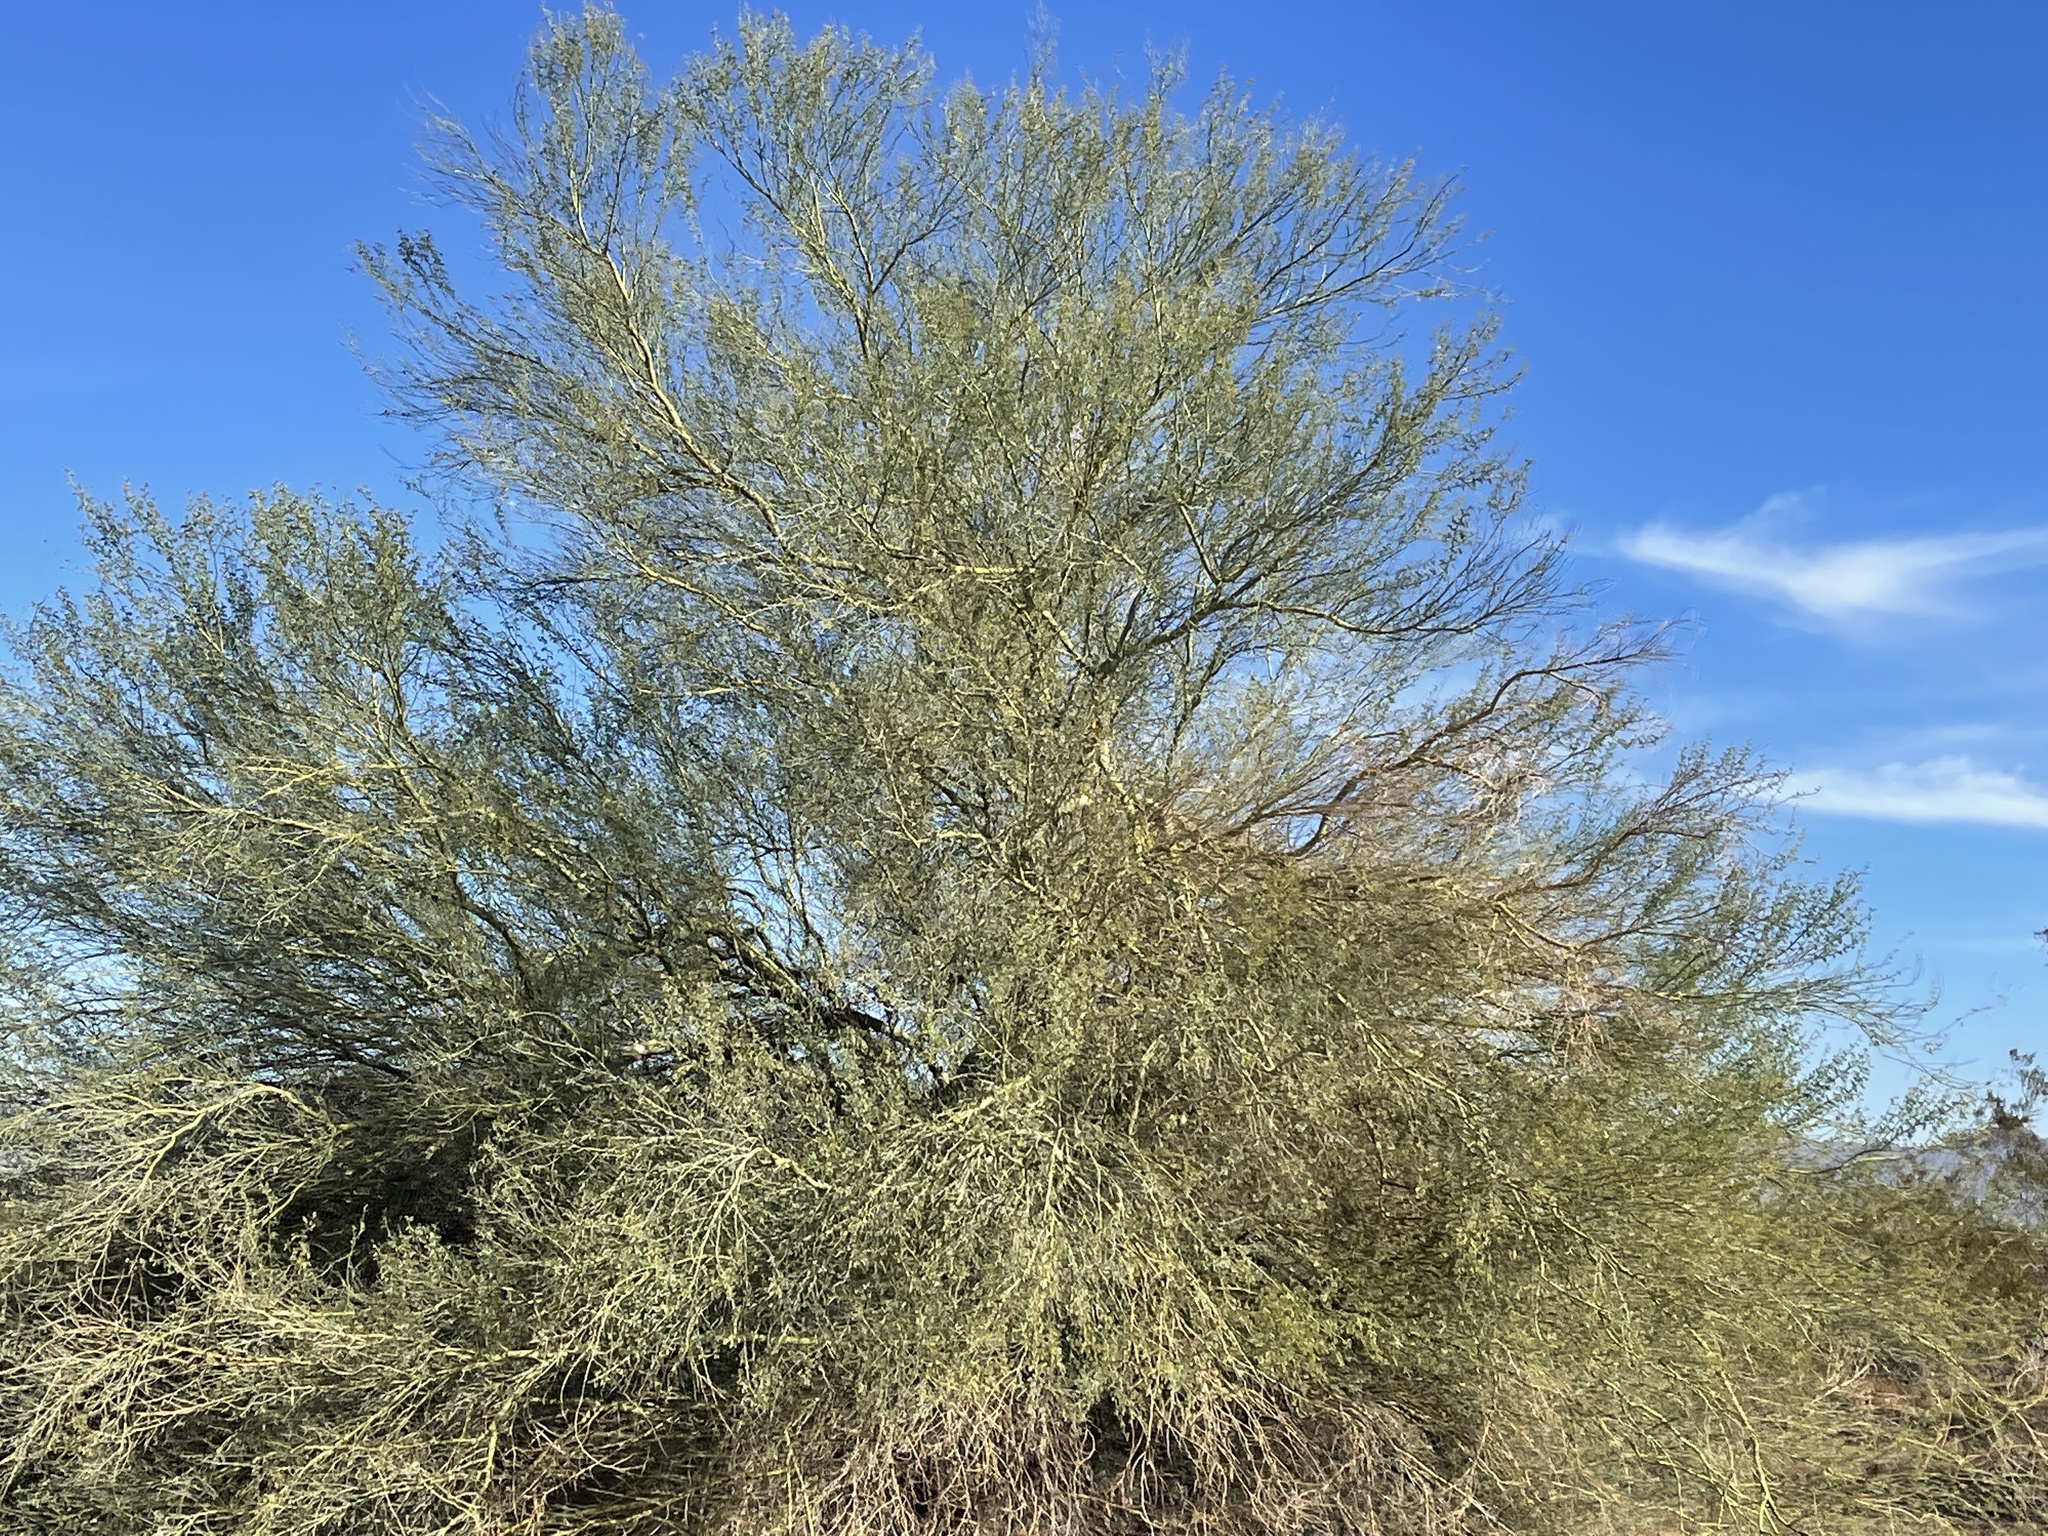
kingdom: Plantae
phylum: Tracheophyta
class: Magnoliopsida
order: Fabales
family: Fabaceae
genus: Parkinsonia
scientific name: Parkinsonia microphylla
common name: Yellow paloverde
